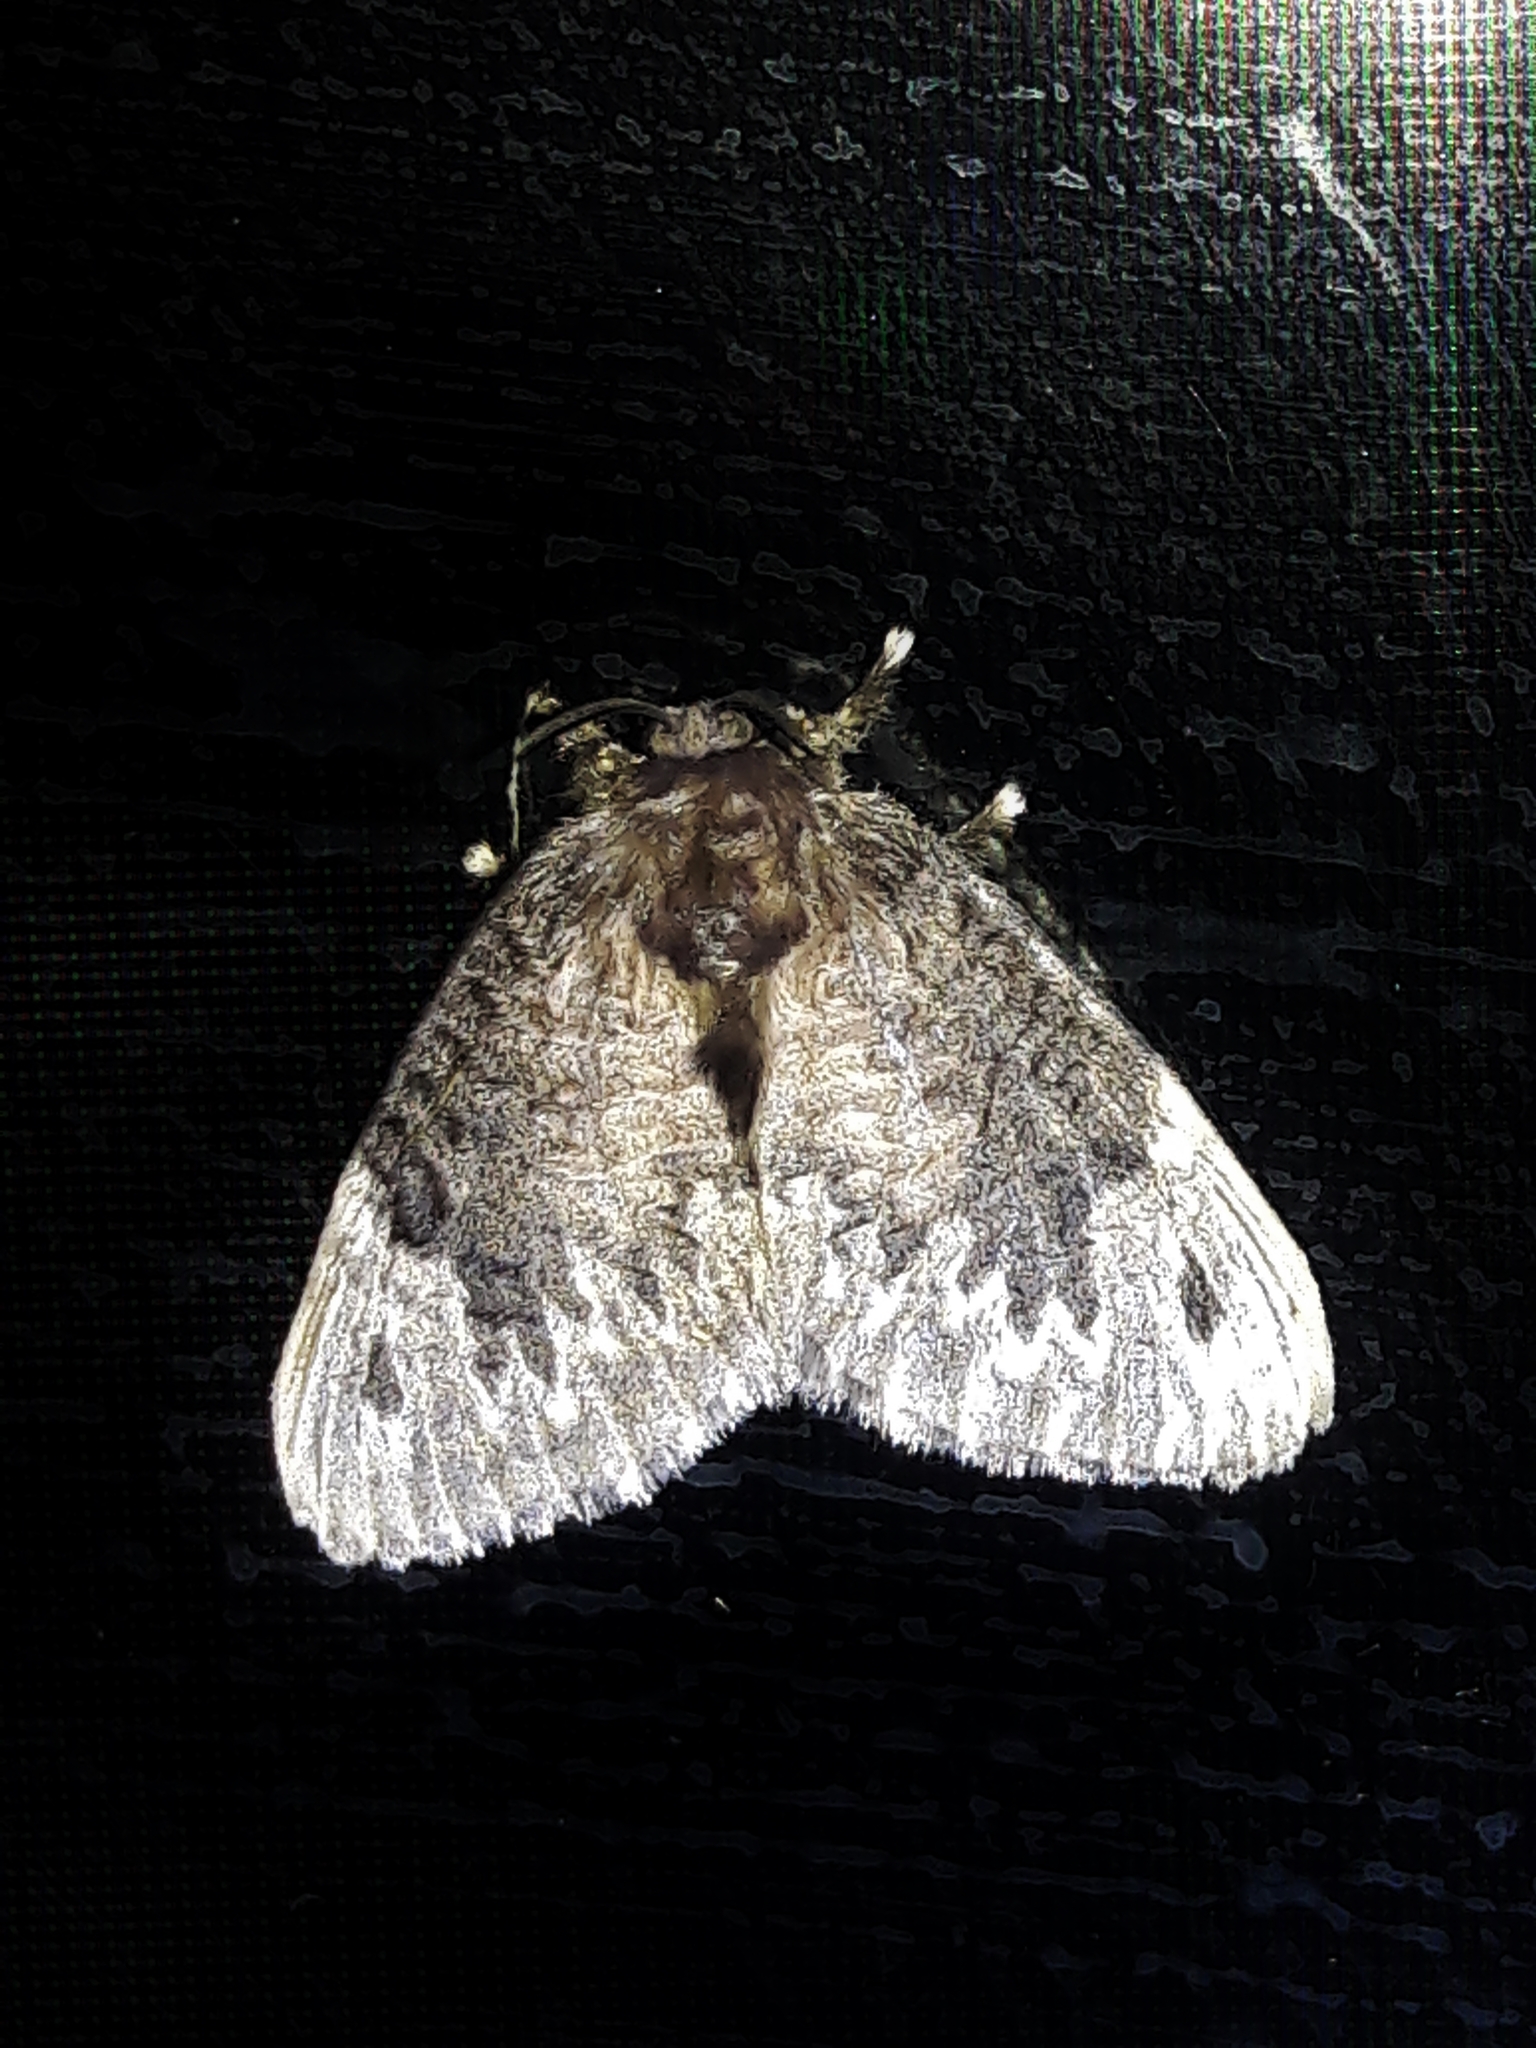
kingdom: Animalia
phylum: Arthropoda
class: Insecta
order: Lepidoptera
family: Megalopygidae
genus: Podalia
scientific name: Podalia
